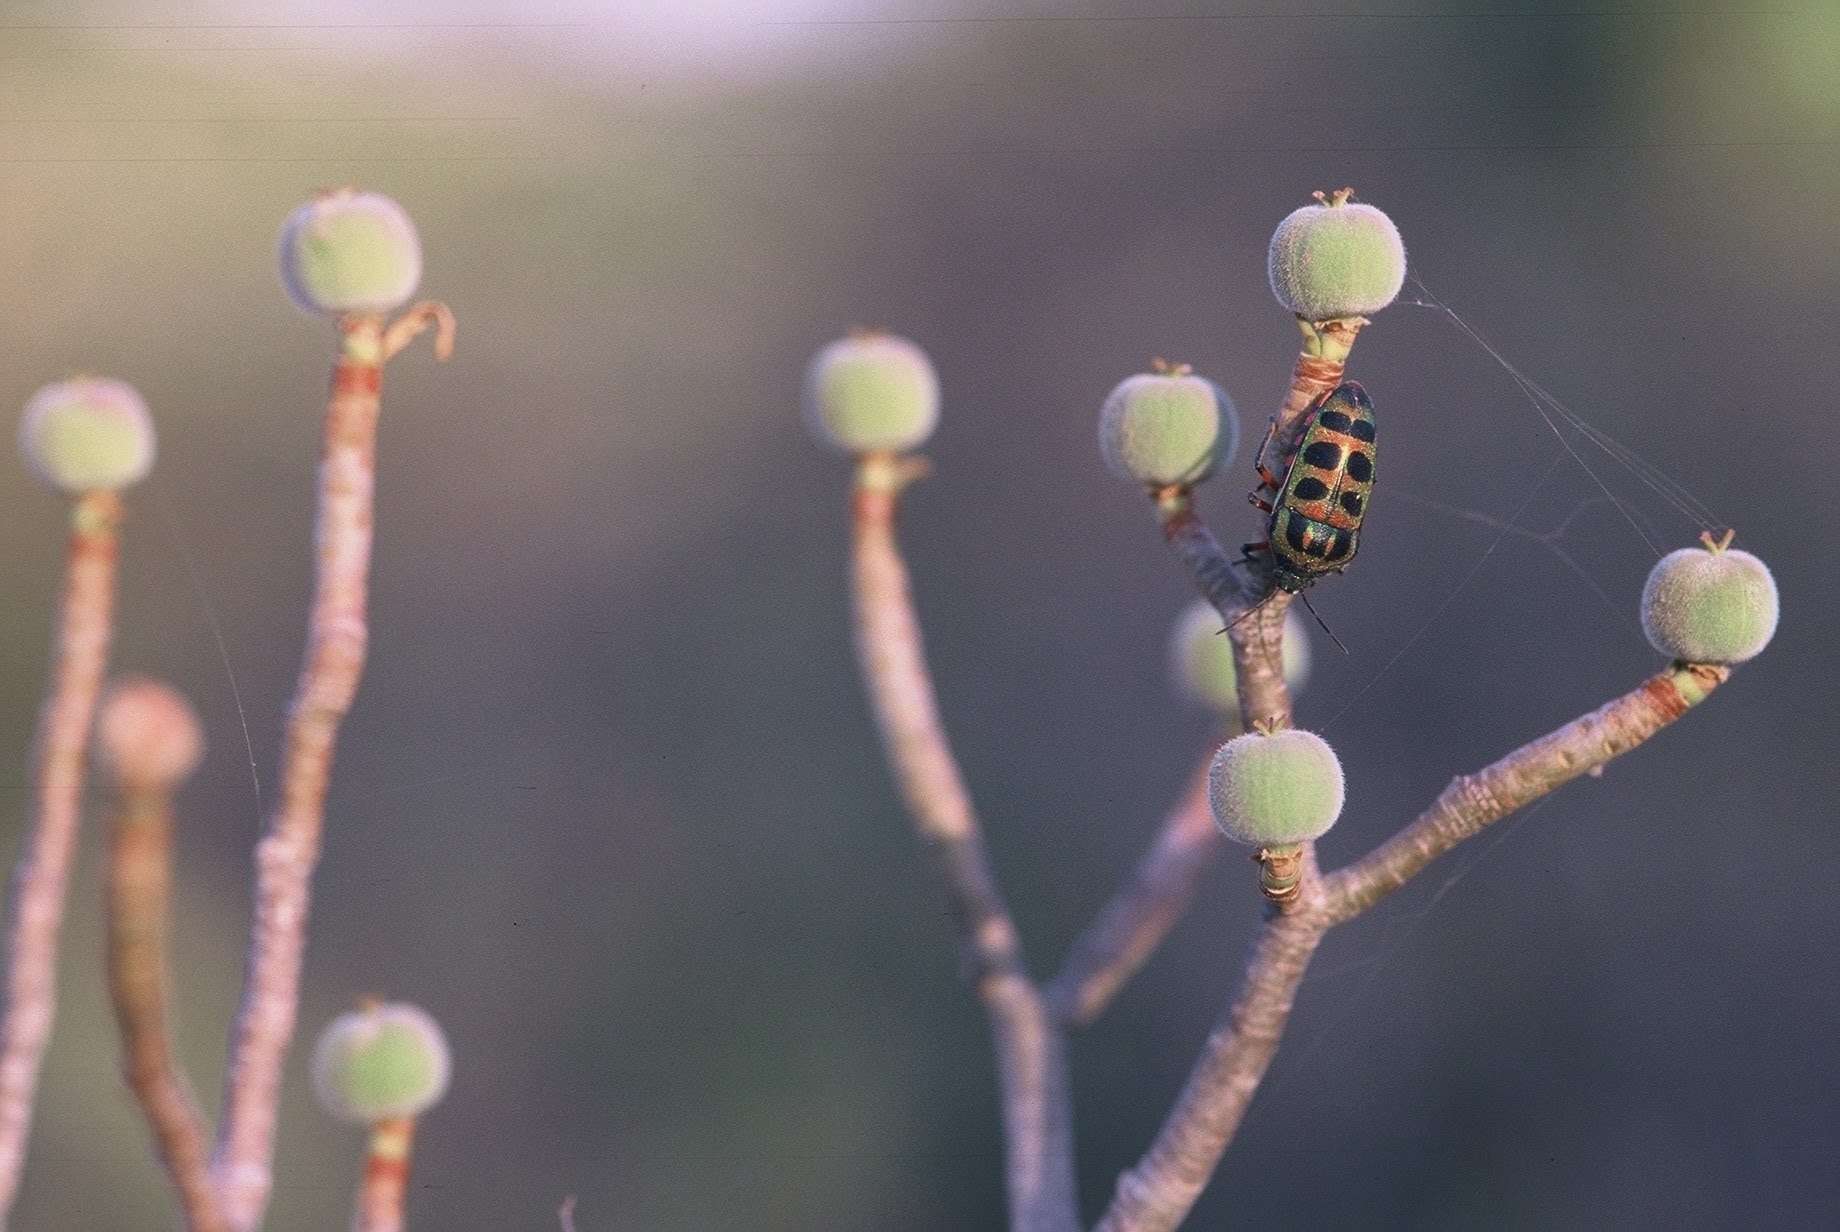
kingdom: Plantae
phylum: Tracheophyta
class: Magnoliopsida
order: Malpighiales
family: Euphorbiaceae
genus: Euphorbia
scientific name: Euphorbia sepium
